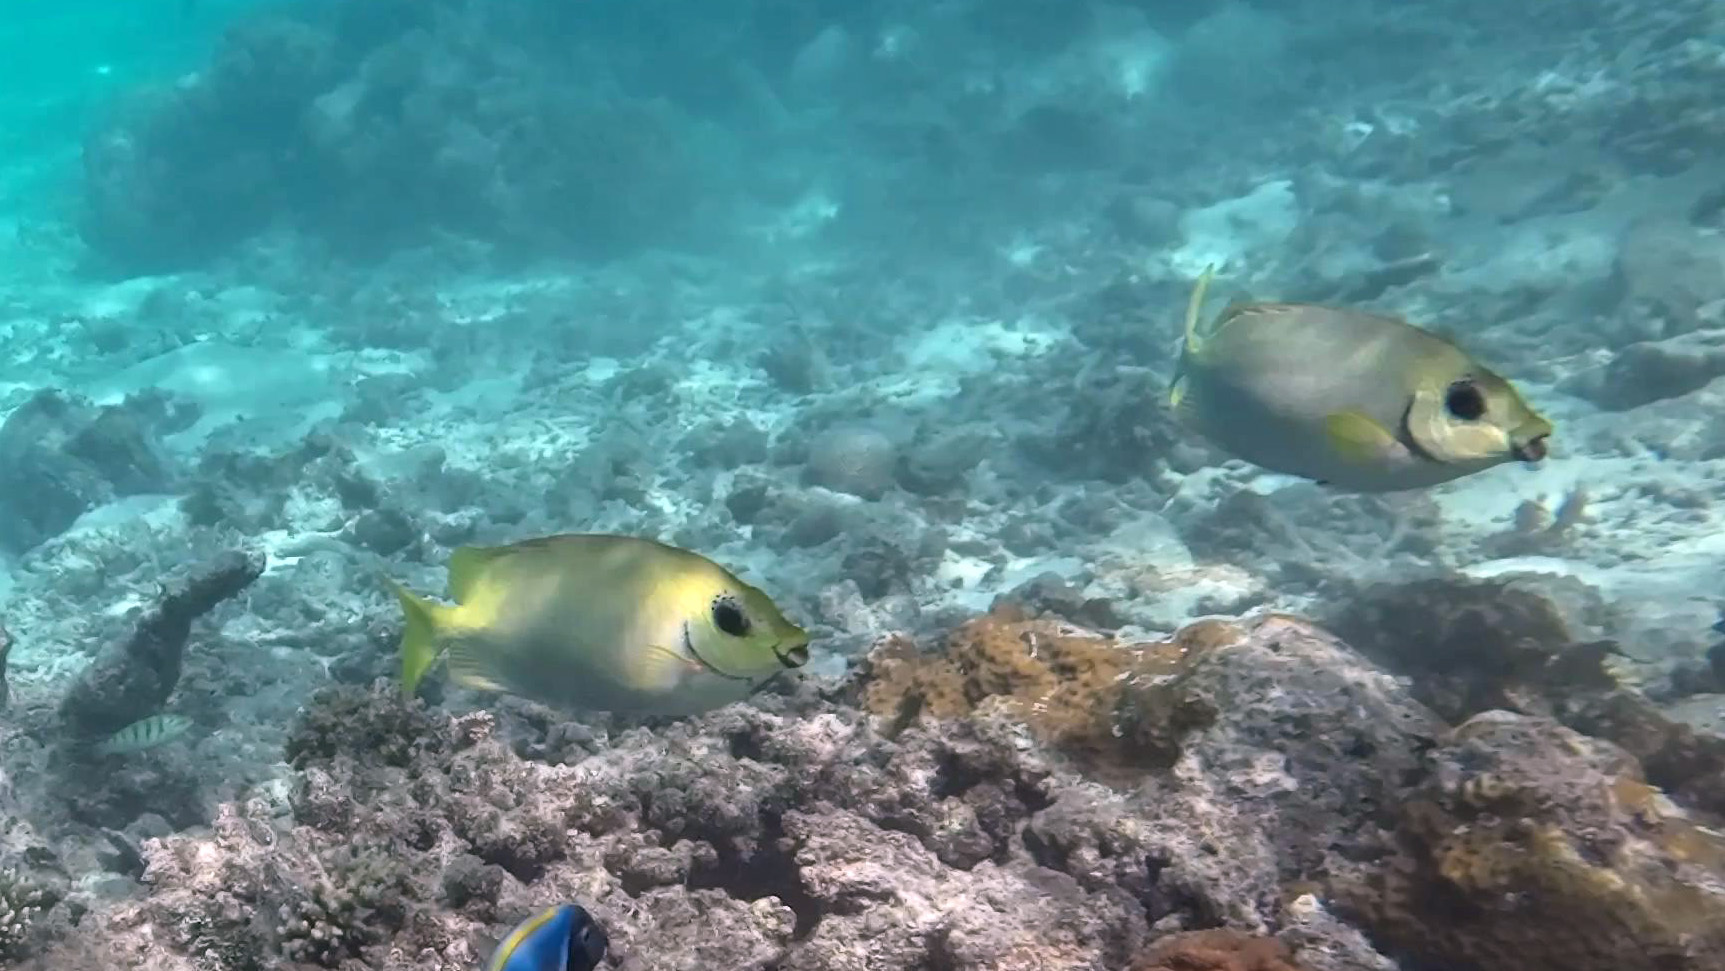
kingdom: Animalia
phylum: Chordata
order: Perciformes
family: Siganidae
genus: Siganus
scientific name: Siganus puelloides
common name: Blackeye rabbitfish
